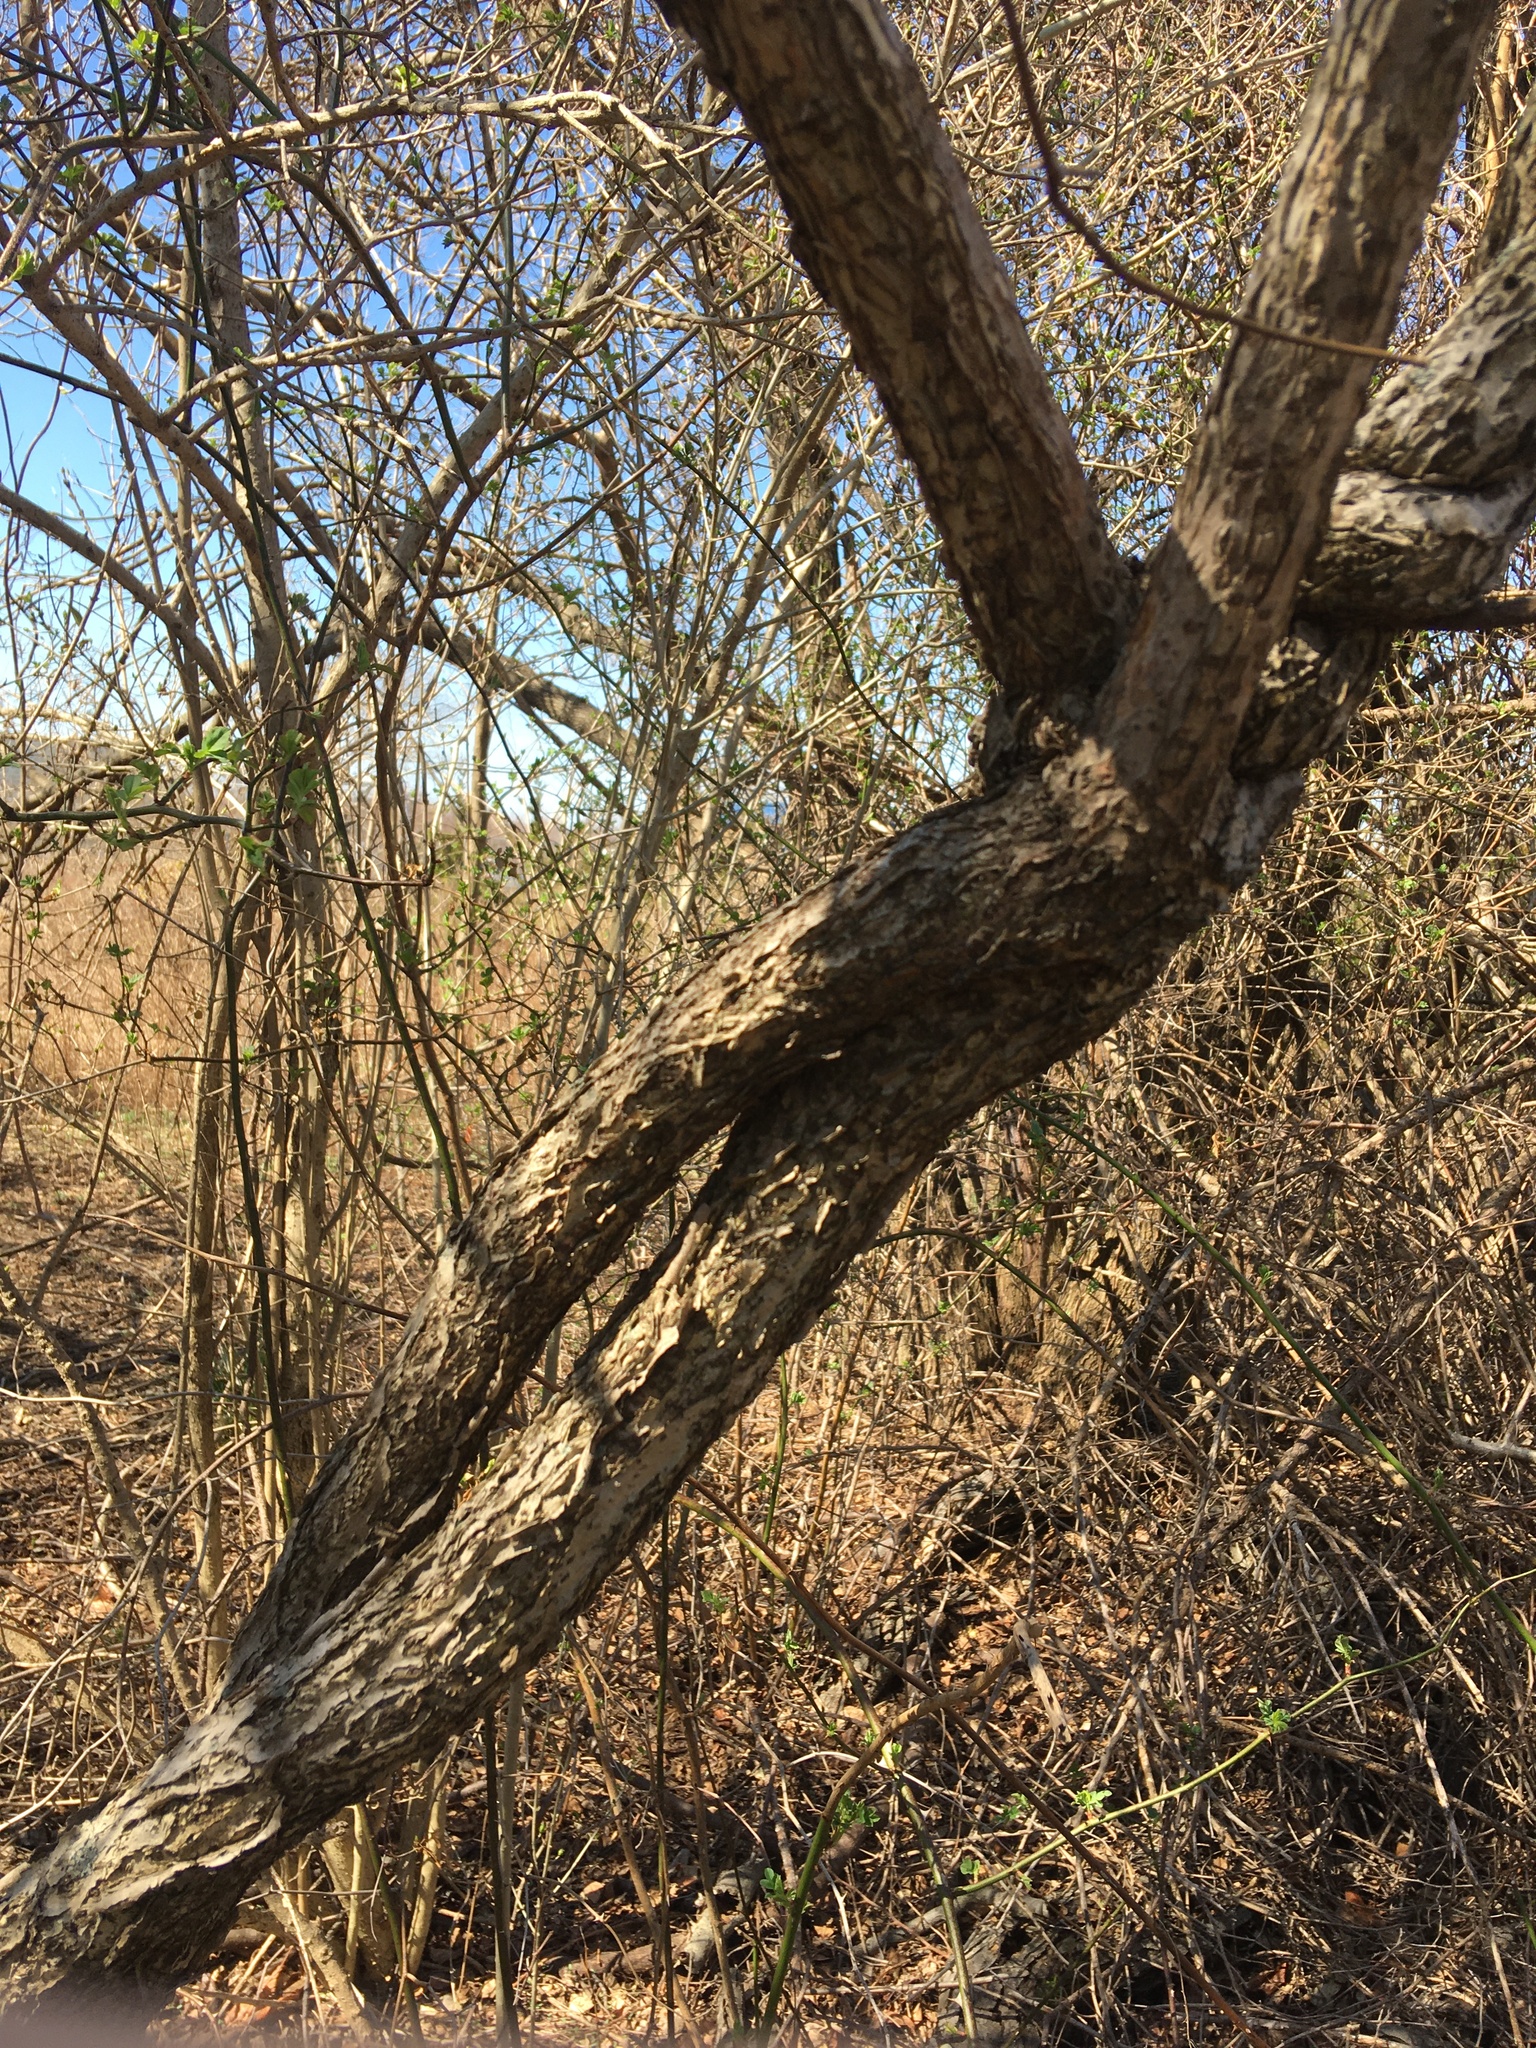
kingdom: Plantae
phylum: Tracheophyta
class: Magnoliopsida
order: Celastrales
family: Celastraceae
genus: Celastrus
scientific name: Celastrus orbiculatus
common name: Oriental bittersweet
